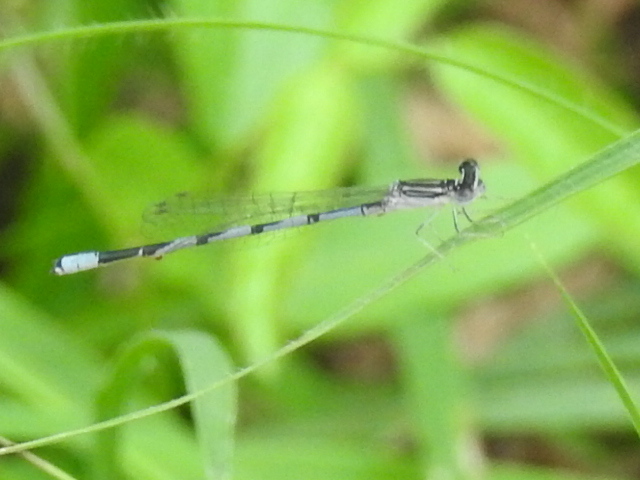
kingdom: Animalia
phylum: Arthropoda
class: Insecta
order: Odonata
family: Coenagrionidae
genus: Enallagma
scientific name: Enallagma basidens
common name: Double-striped bluet
